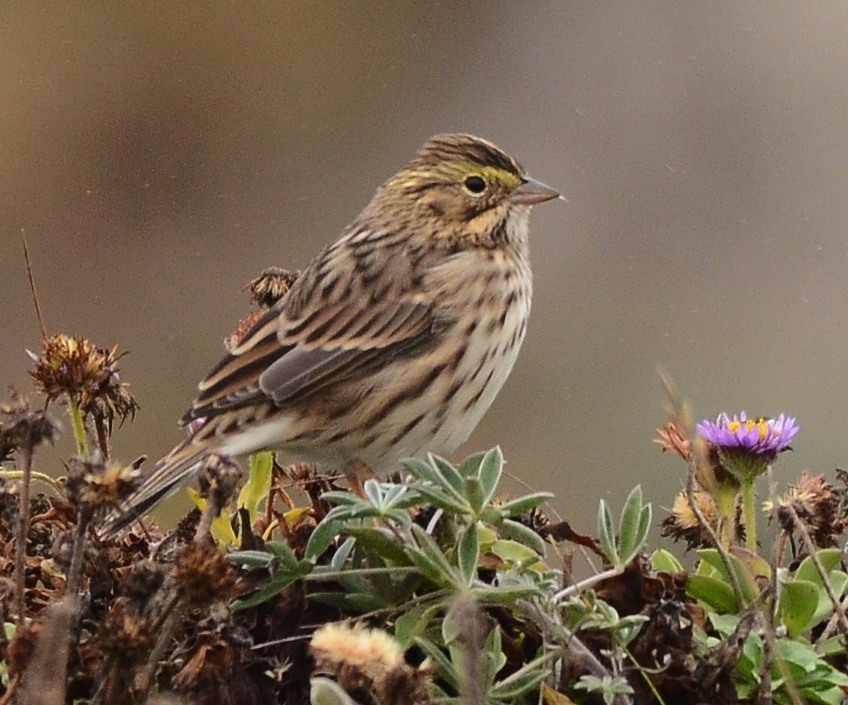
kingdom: Animalia
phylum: Chordata
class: Aves
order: Passeriformes
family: Passerellidae
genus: Passerculus
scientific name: Passerculus sandwichensis
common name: Savannah sparrow
